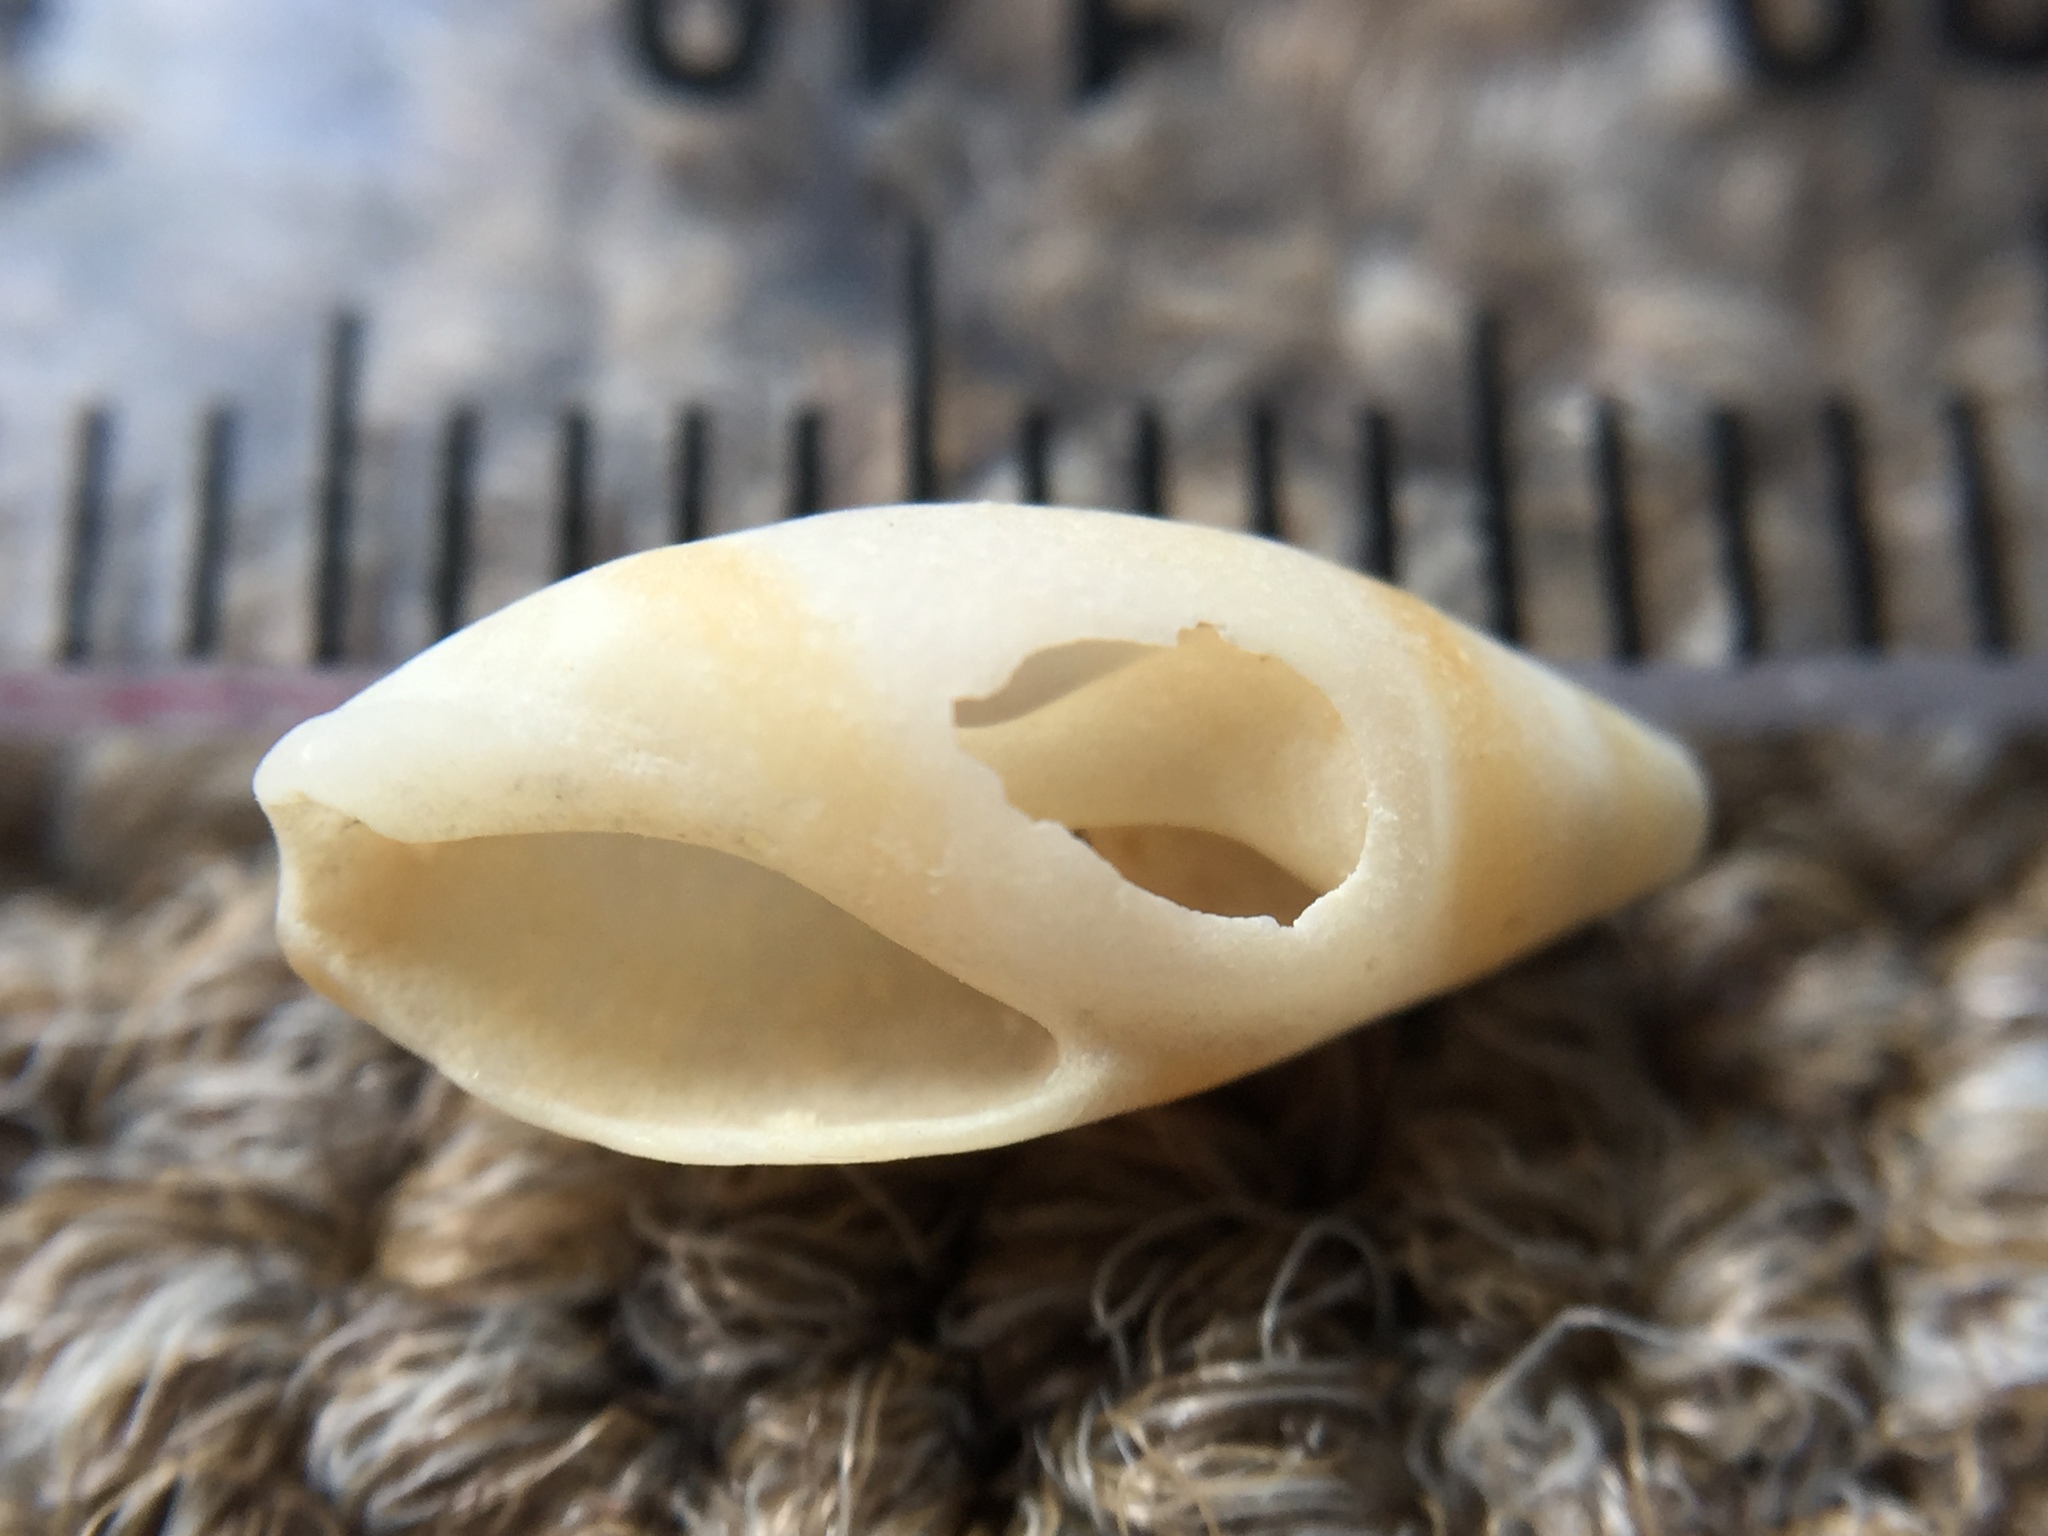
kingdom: Animalia
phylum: Mollusca
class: Gastropoda
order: Neogastropoda
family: Ancillariidae
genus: Amalda
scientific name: Amalda novaezelandiae
